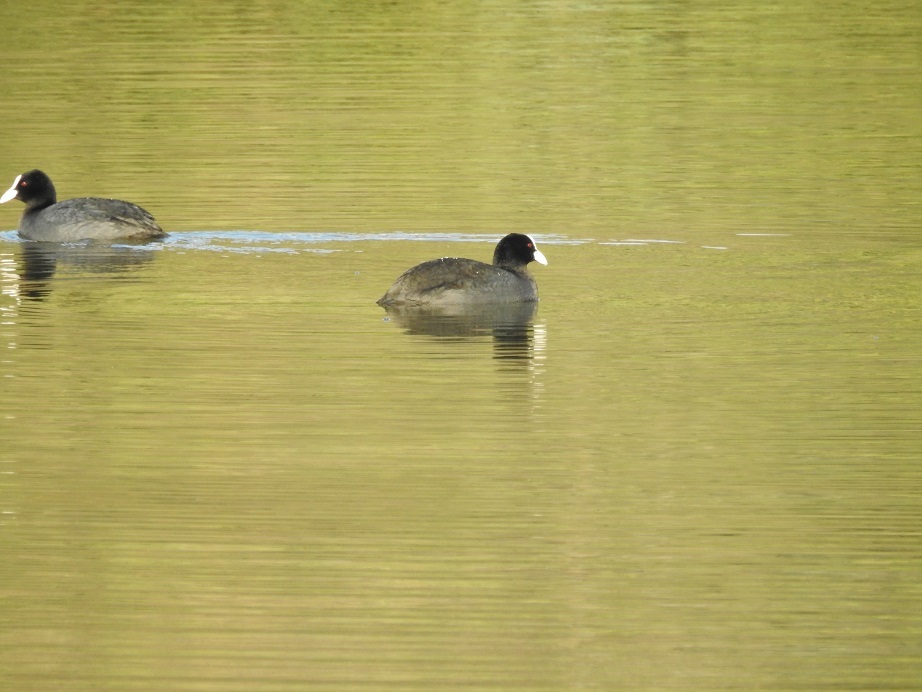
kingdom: Animalia
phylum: Chordata
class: Aves
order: Gruiformes
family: Rallidae
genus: Fulica
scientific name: Fulica atra
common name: Eurasian coot
